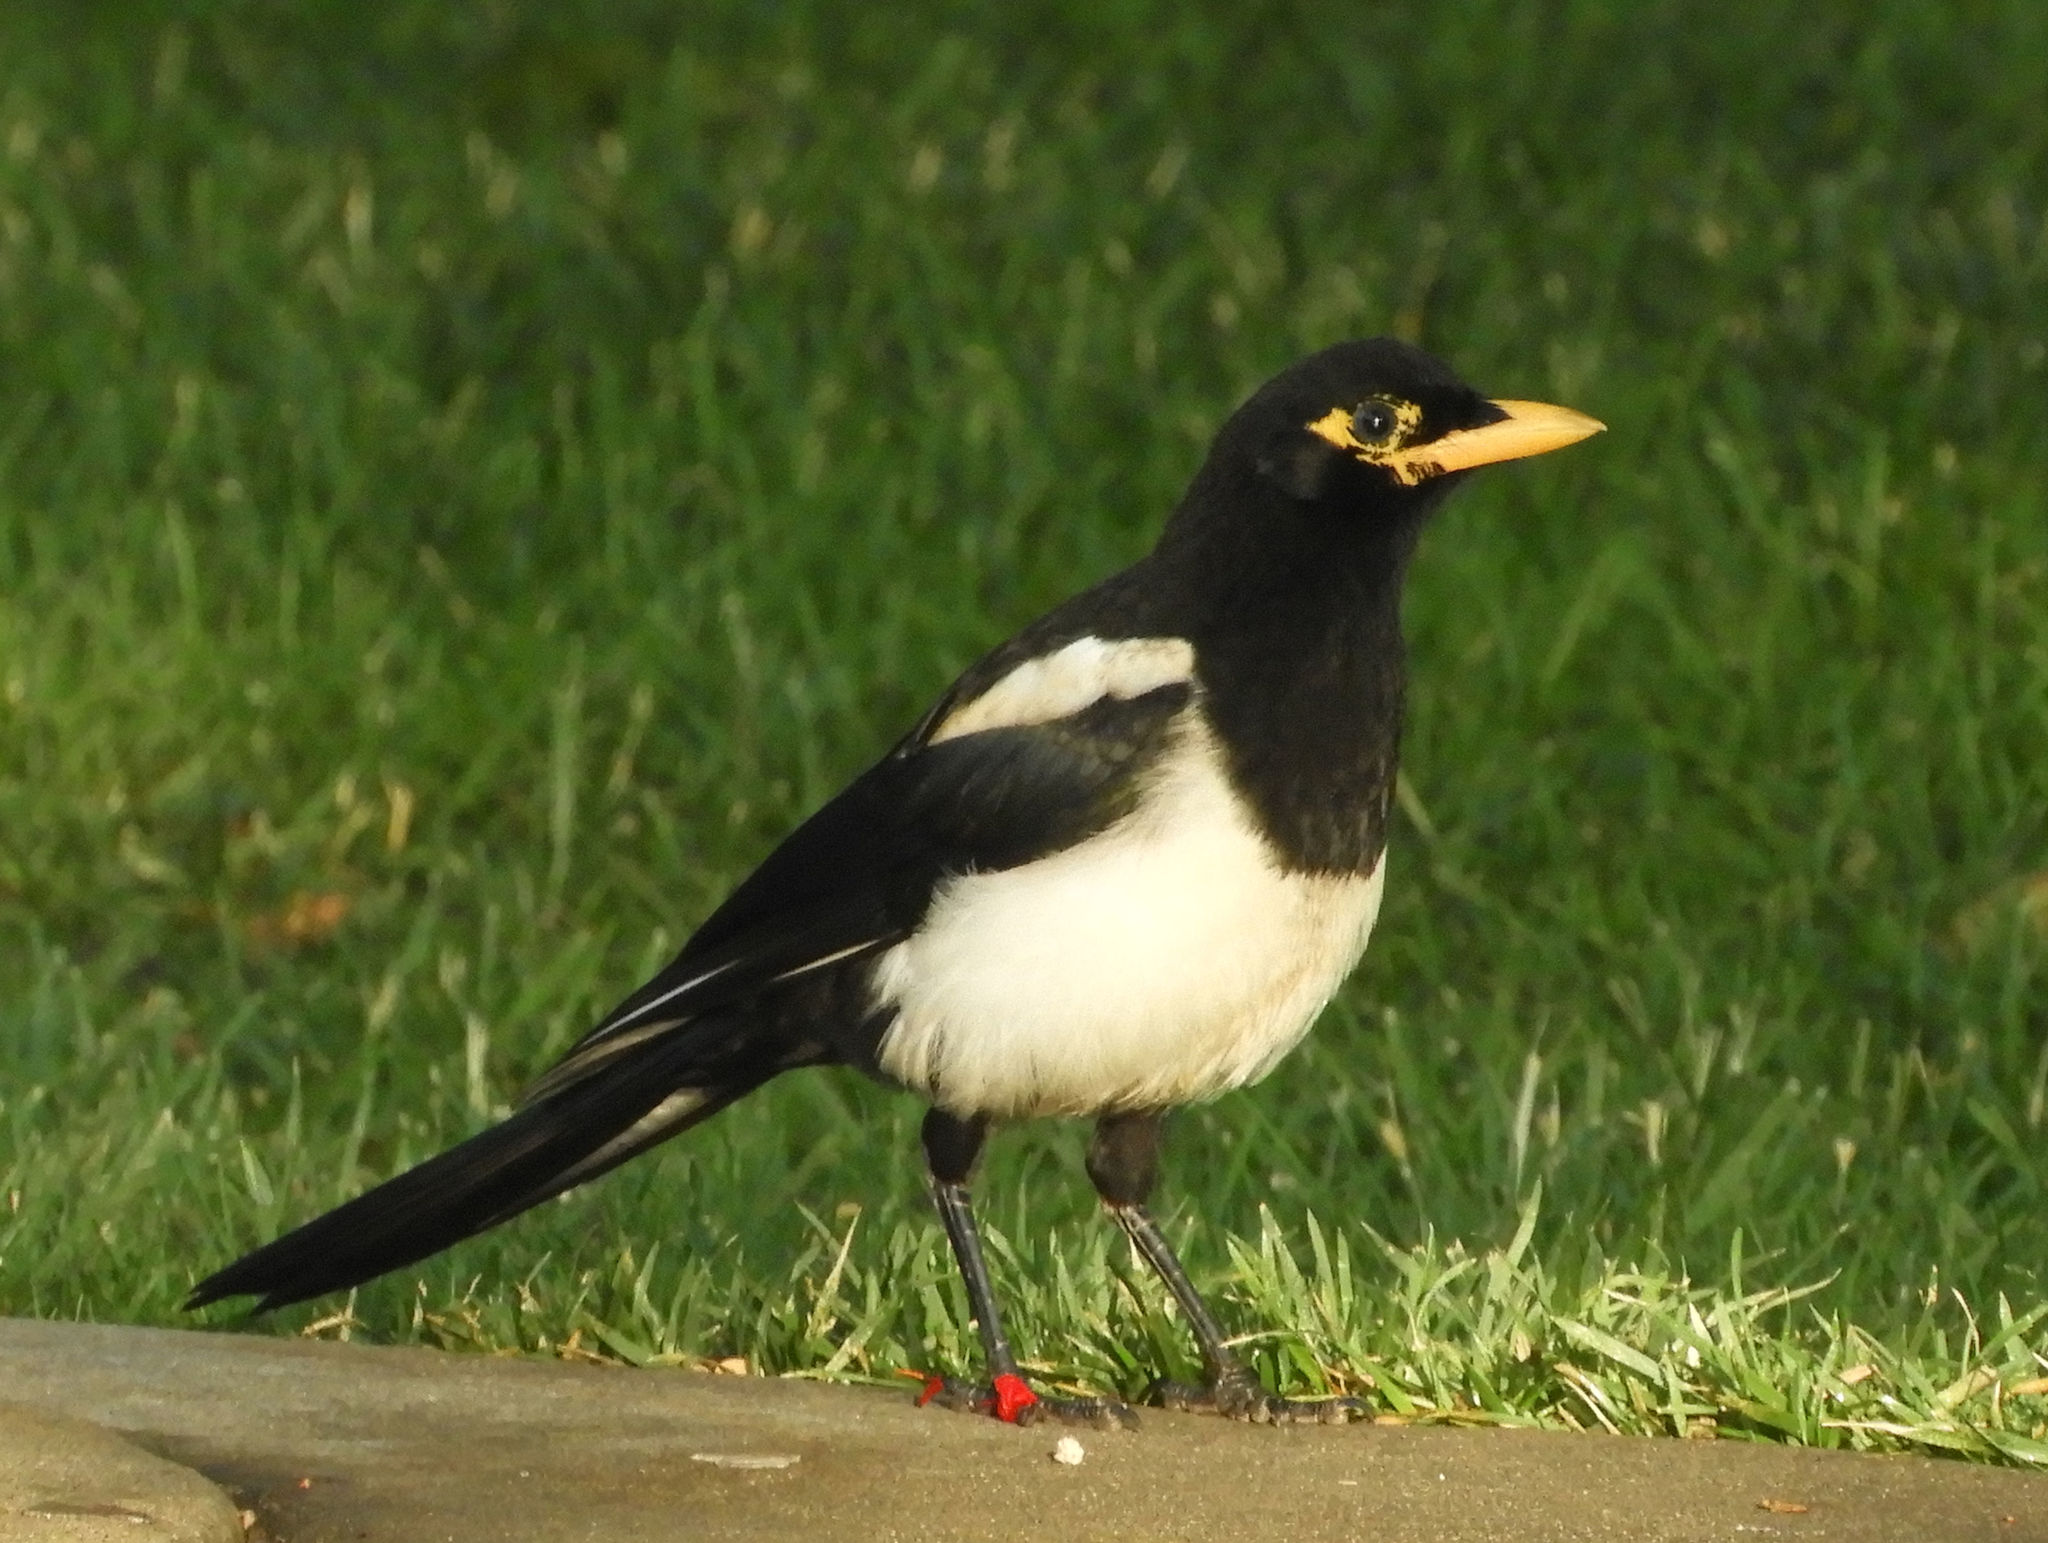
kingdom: Animalia
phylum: Chordata
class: Aves
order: Passeriformes
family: Corvidae
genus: Pica
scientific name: Pica nuttalli
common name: Yellow-billed magpie
